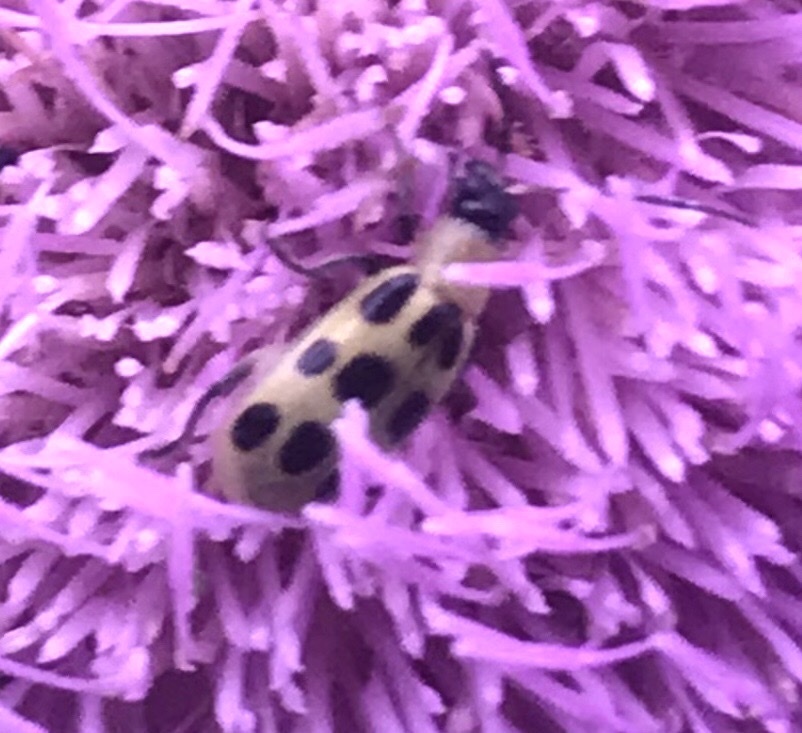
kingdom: Animalia
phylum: Arthropoda
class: Insecta
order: Coleoptera
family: Chrysomelidae
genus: Diabrotica
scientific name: Diabrotica undecimpunctata
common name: Spotted cucumber beetle
